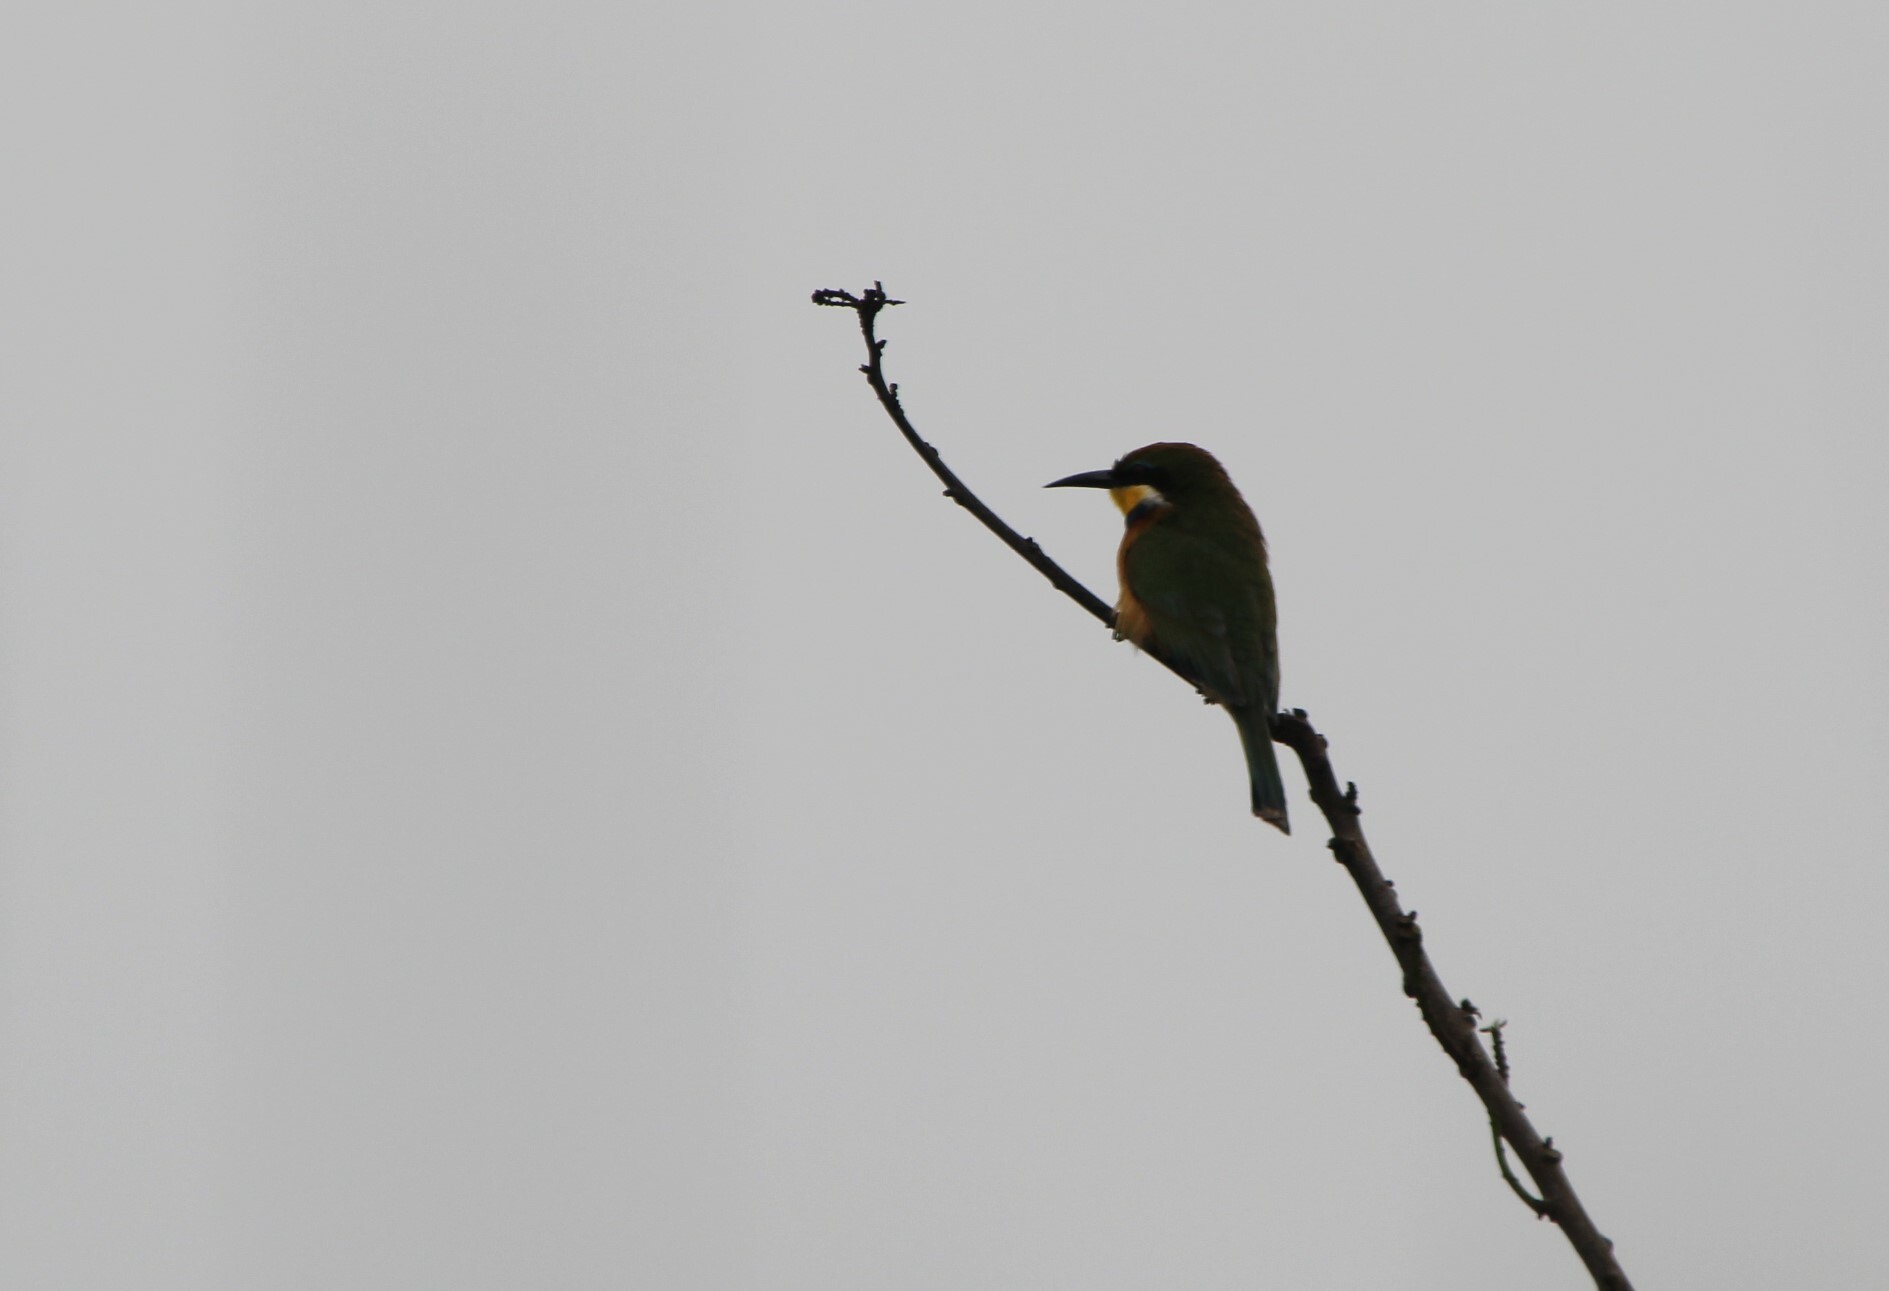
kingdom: Animalia
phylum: Chordata
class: Aves
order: Coraciiformes
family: Meropidae
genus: Merops
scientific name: Merops variegatus
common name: Blue-breasted bee-eater
